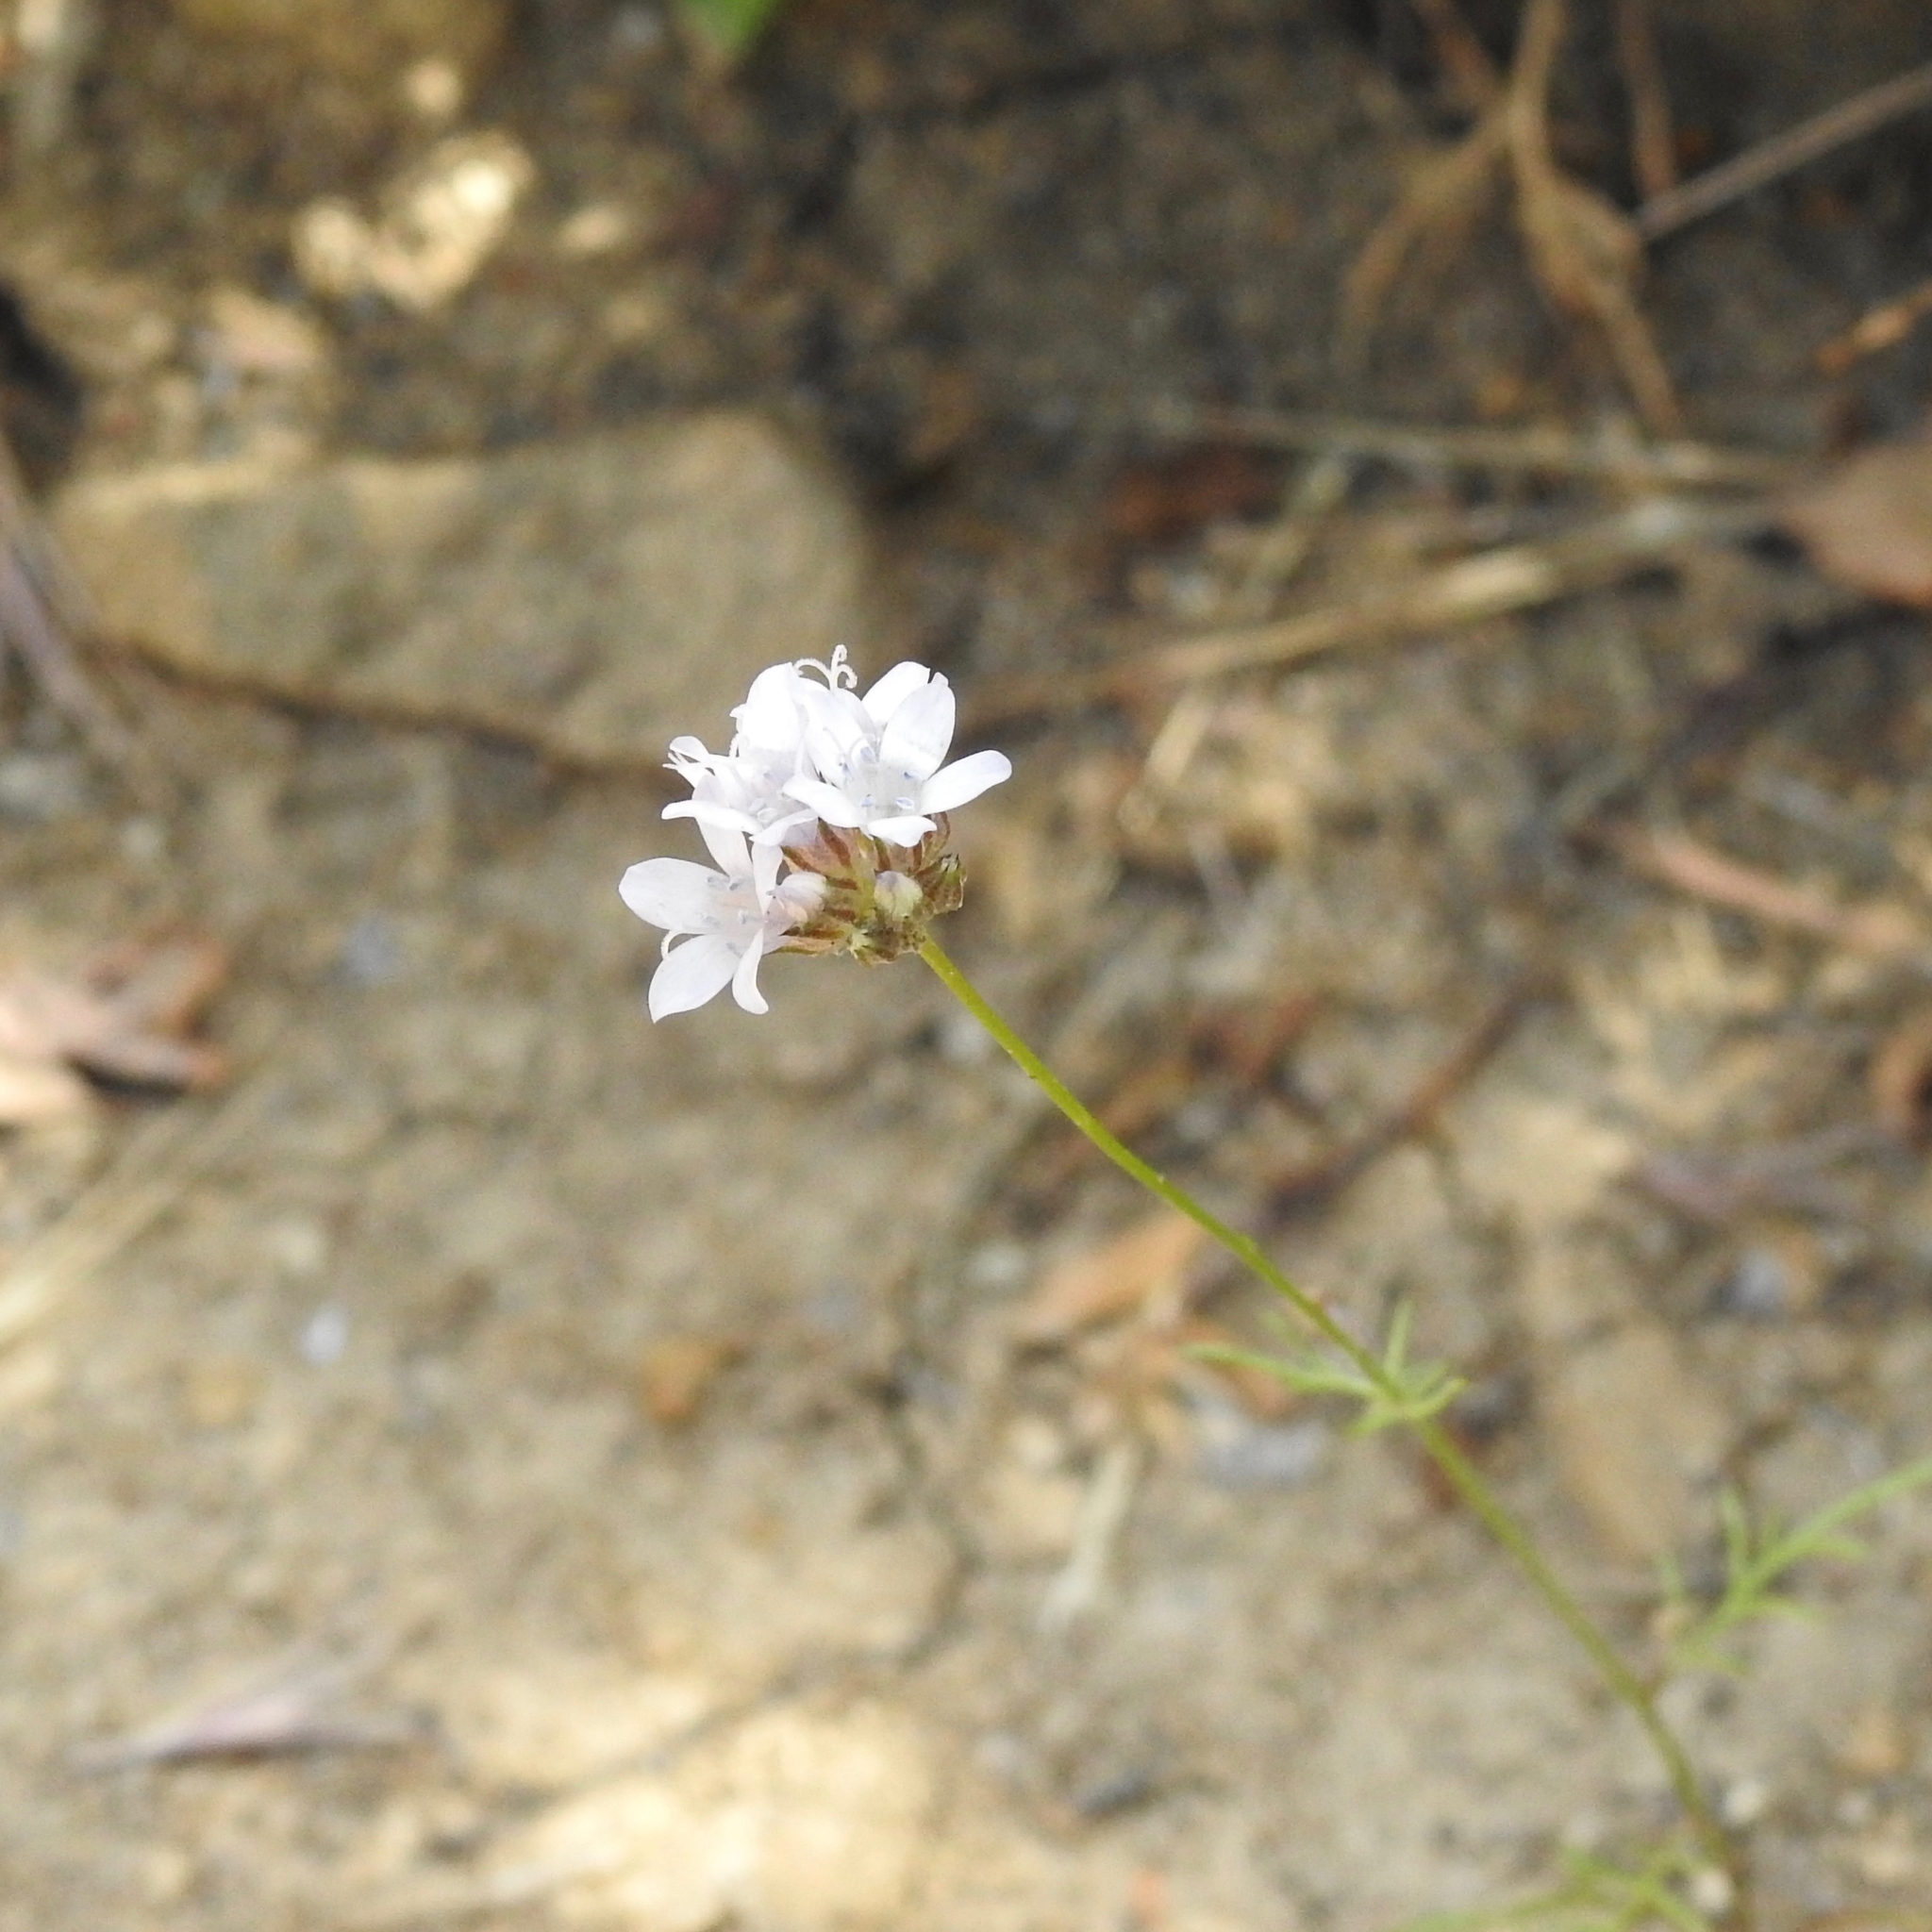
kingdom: Plantae
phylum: Tracheophyta
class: Magnoliopsida
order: Ericales
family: Polemoniaceae
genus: Gilia
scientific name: Gilia capitata
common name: Bluehead gilia
